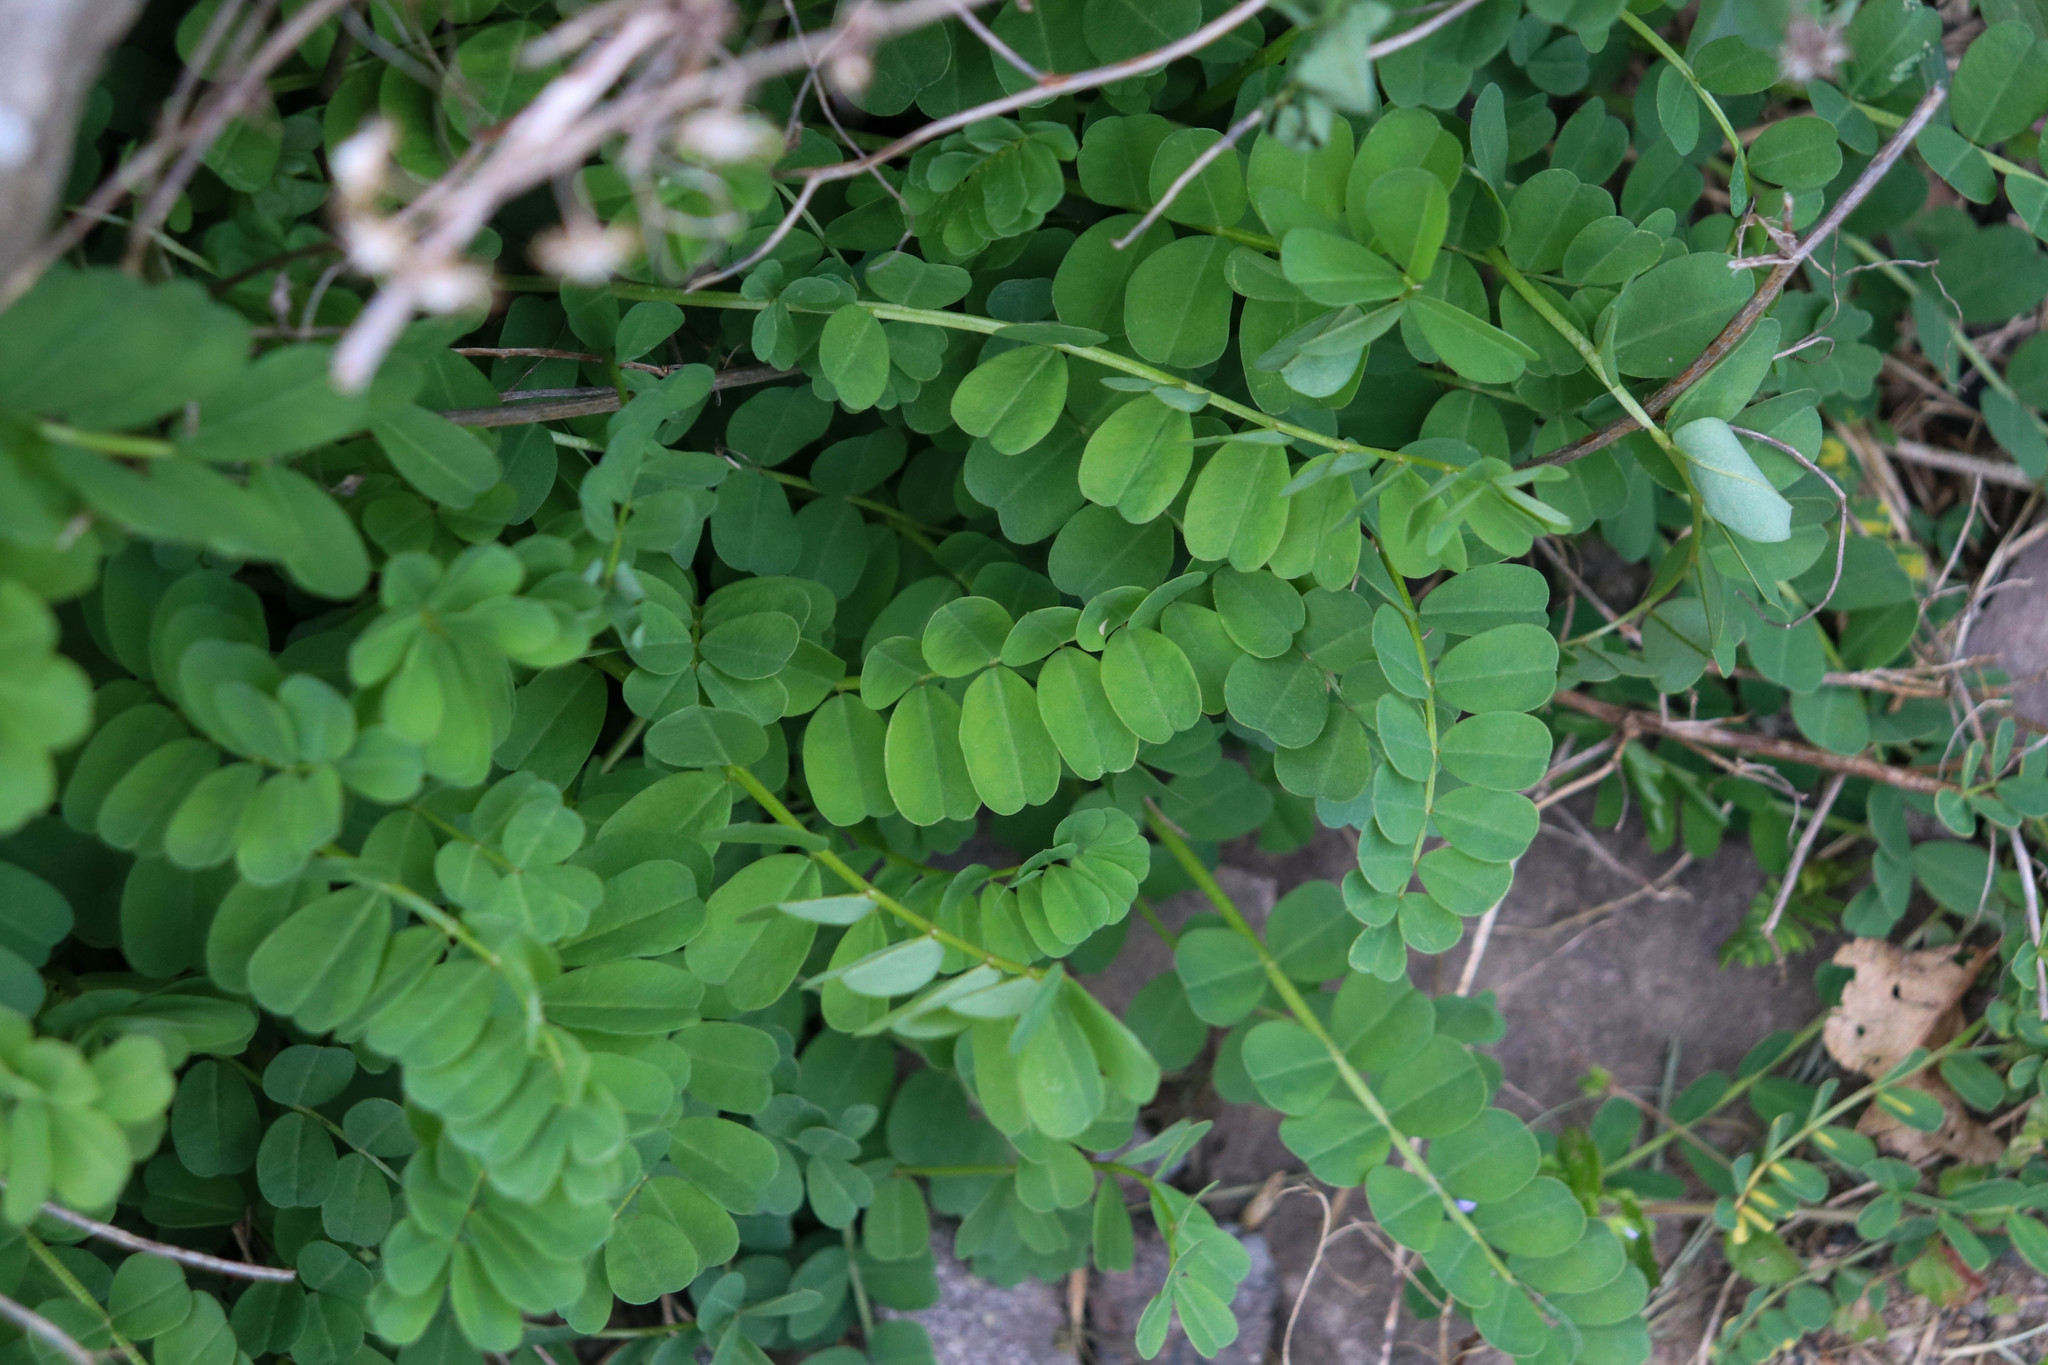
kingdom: Plantae
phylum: Tracheophyta
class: Magnoliopsida
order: Fabales
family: Fabaceae
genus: Coronilla
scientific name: Coronilla varia
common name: Crownvetch
